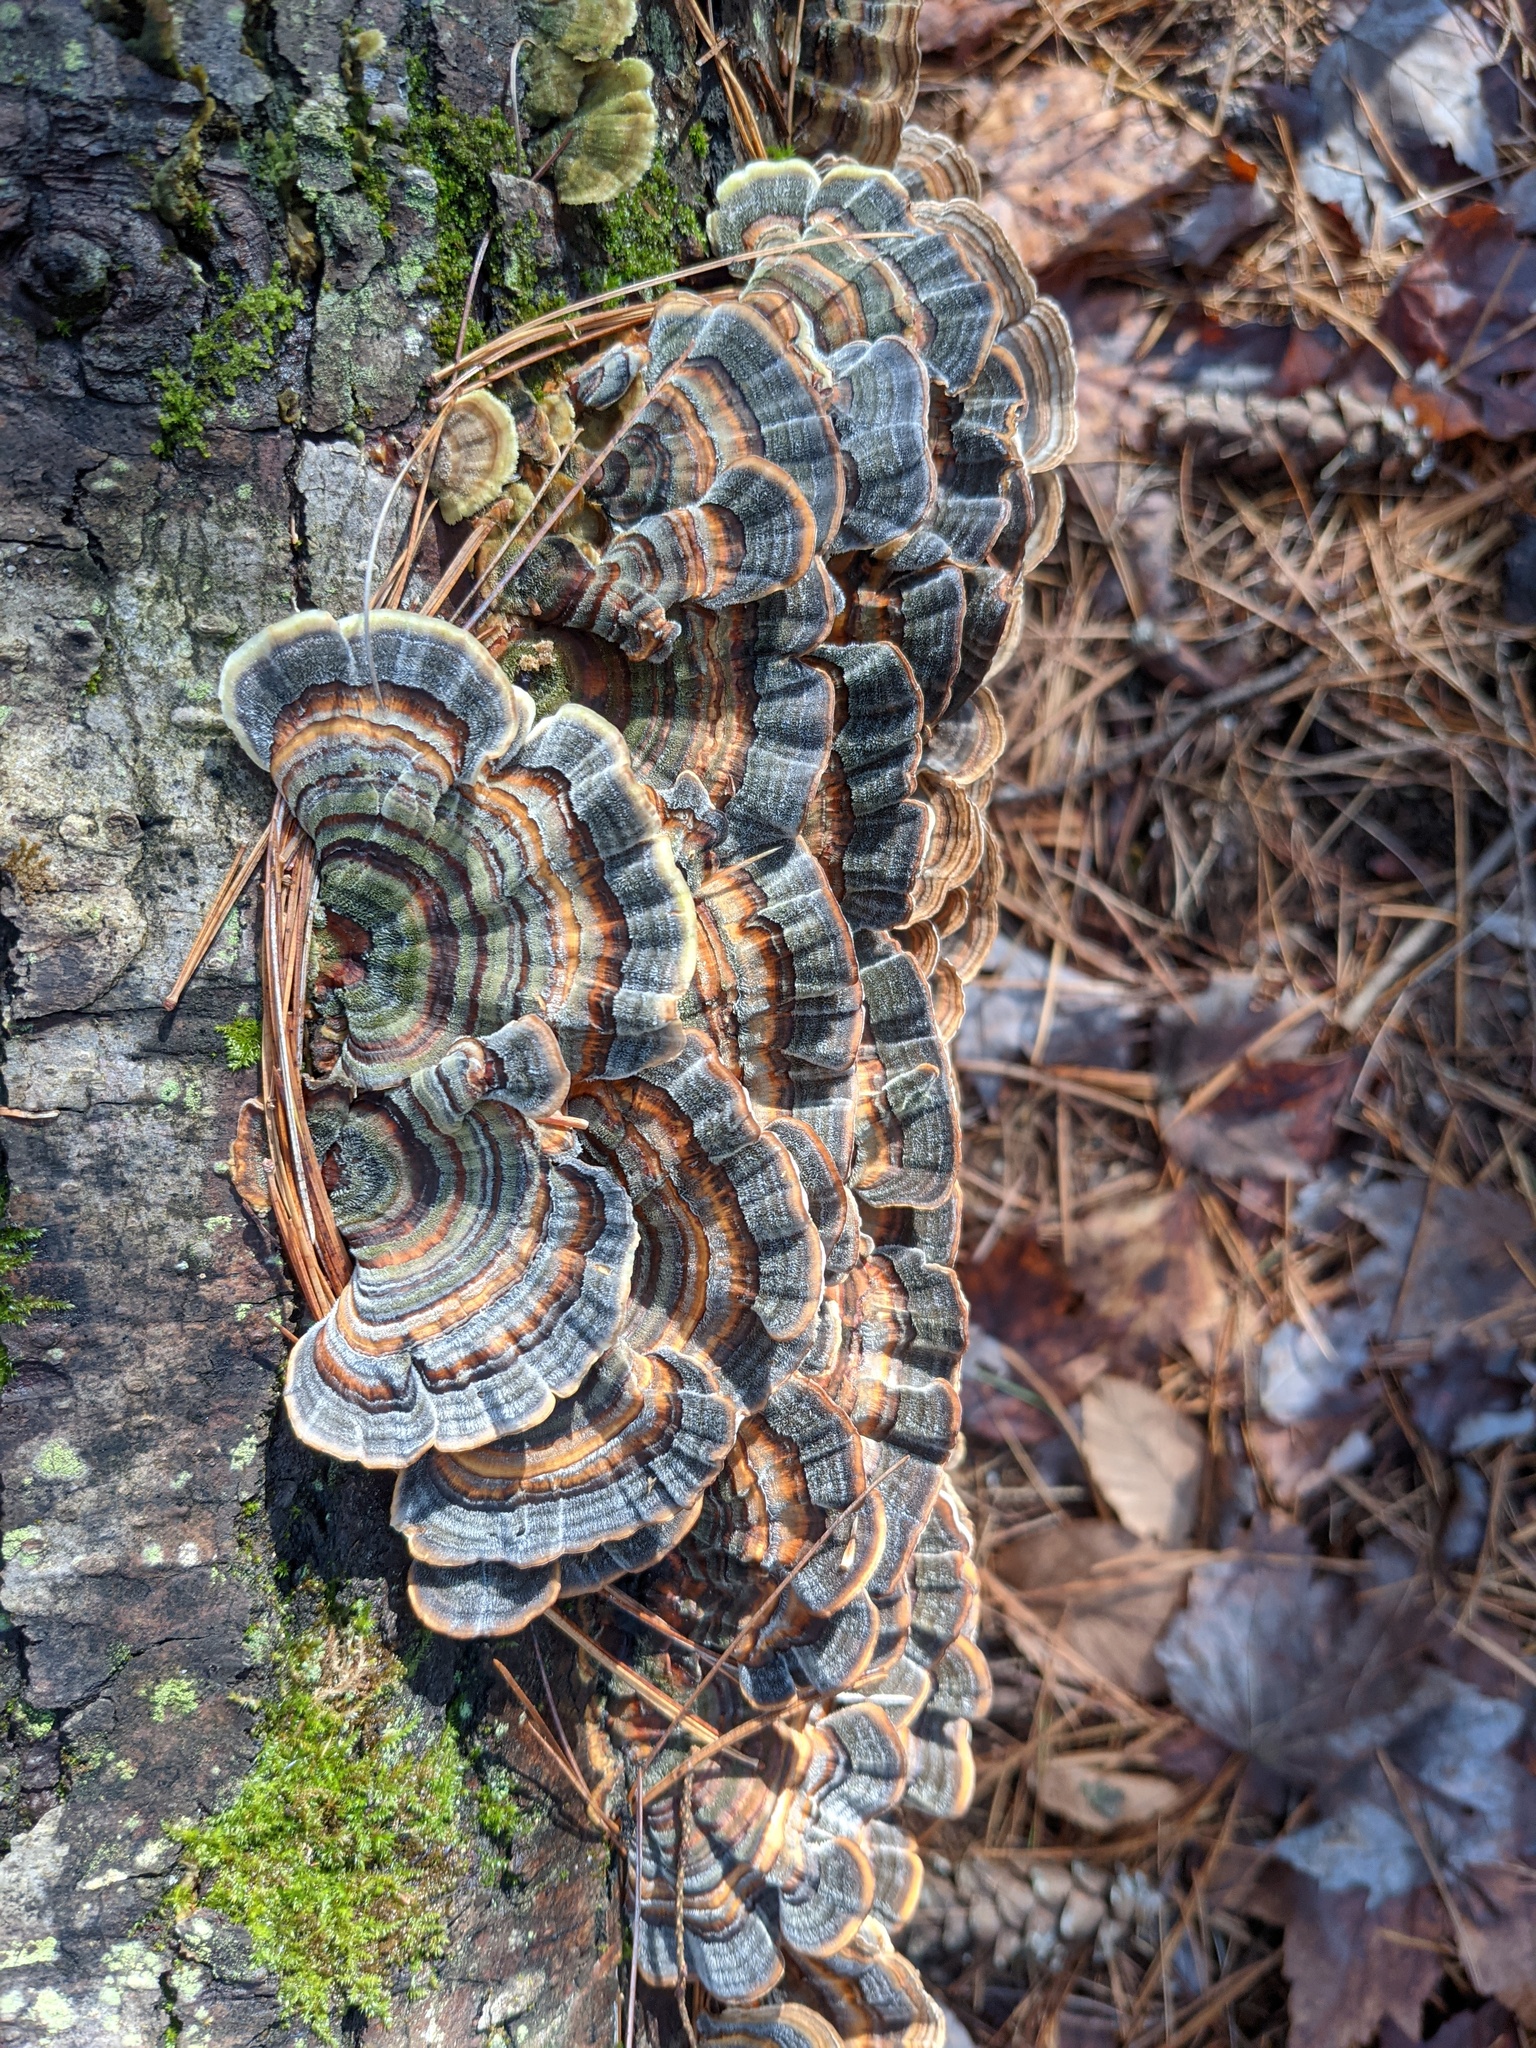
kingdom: Fungi
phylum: Basidiomycota
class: Agaricomycetes
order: Polyporales
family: Polyporaceae
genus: Trametes
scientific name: Trametes versicolor
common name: Turkeytail
